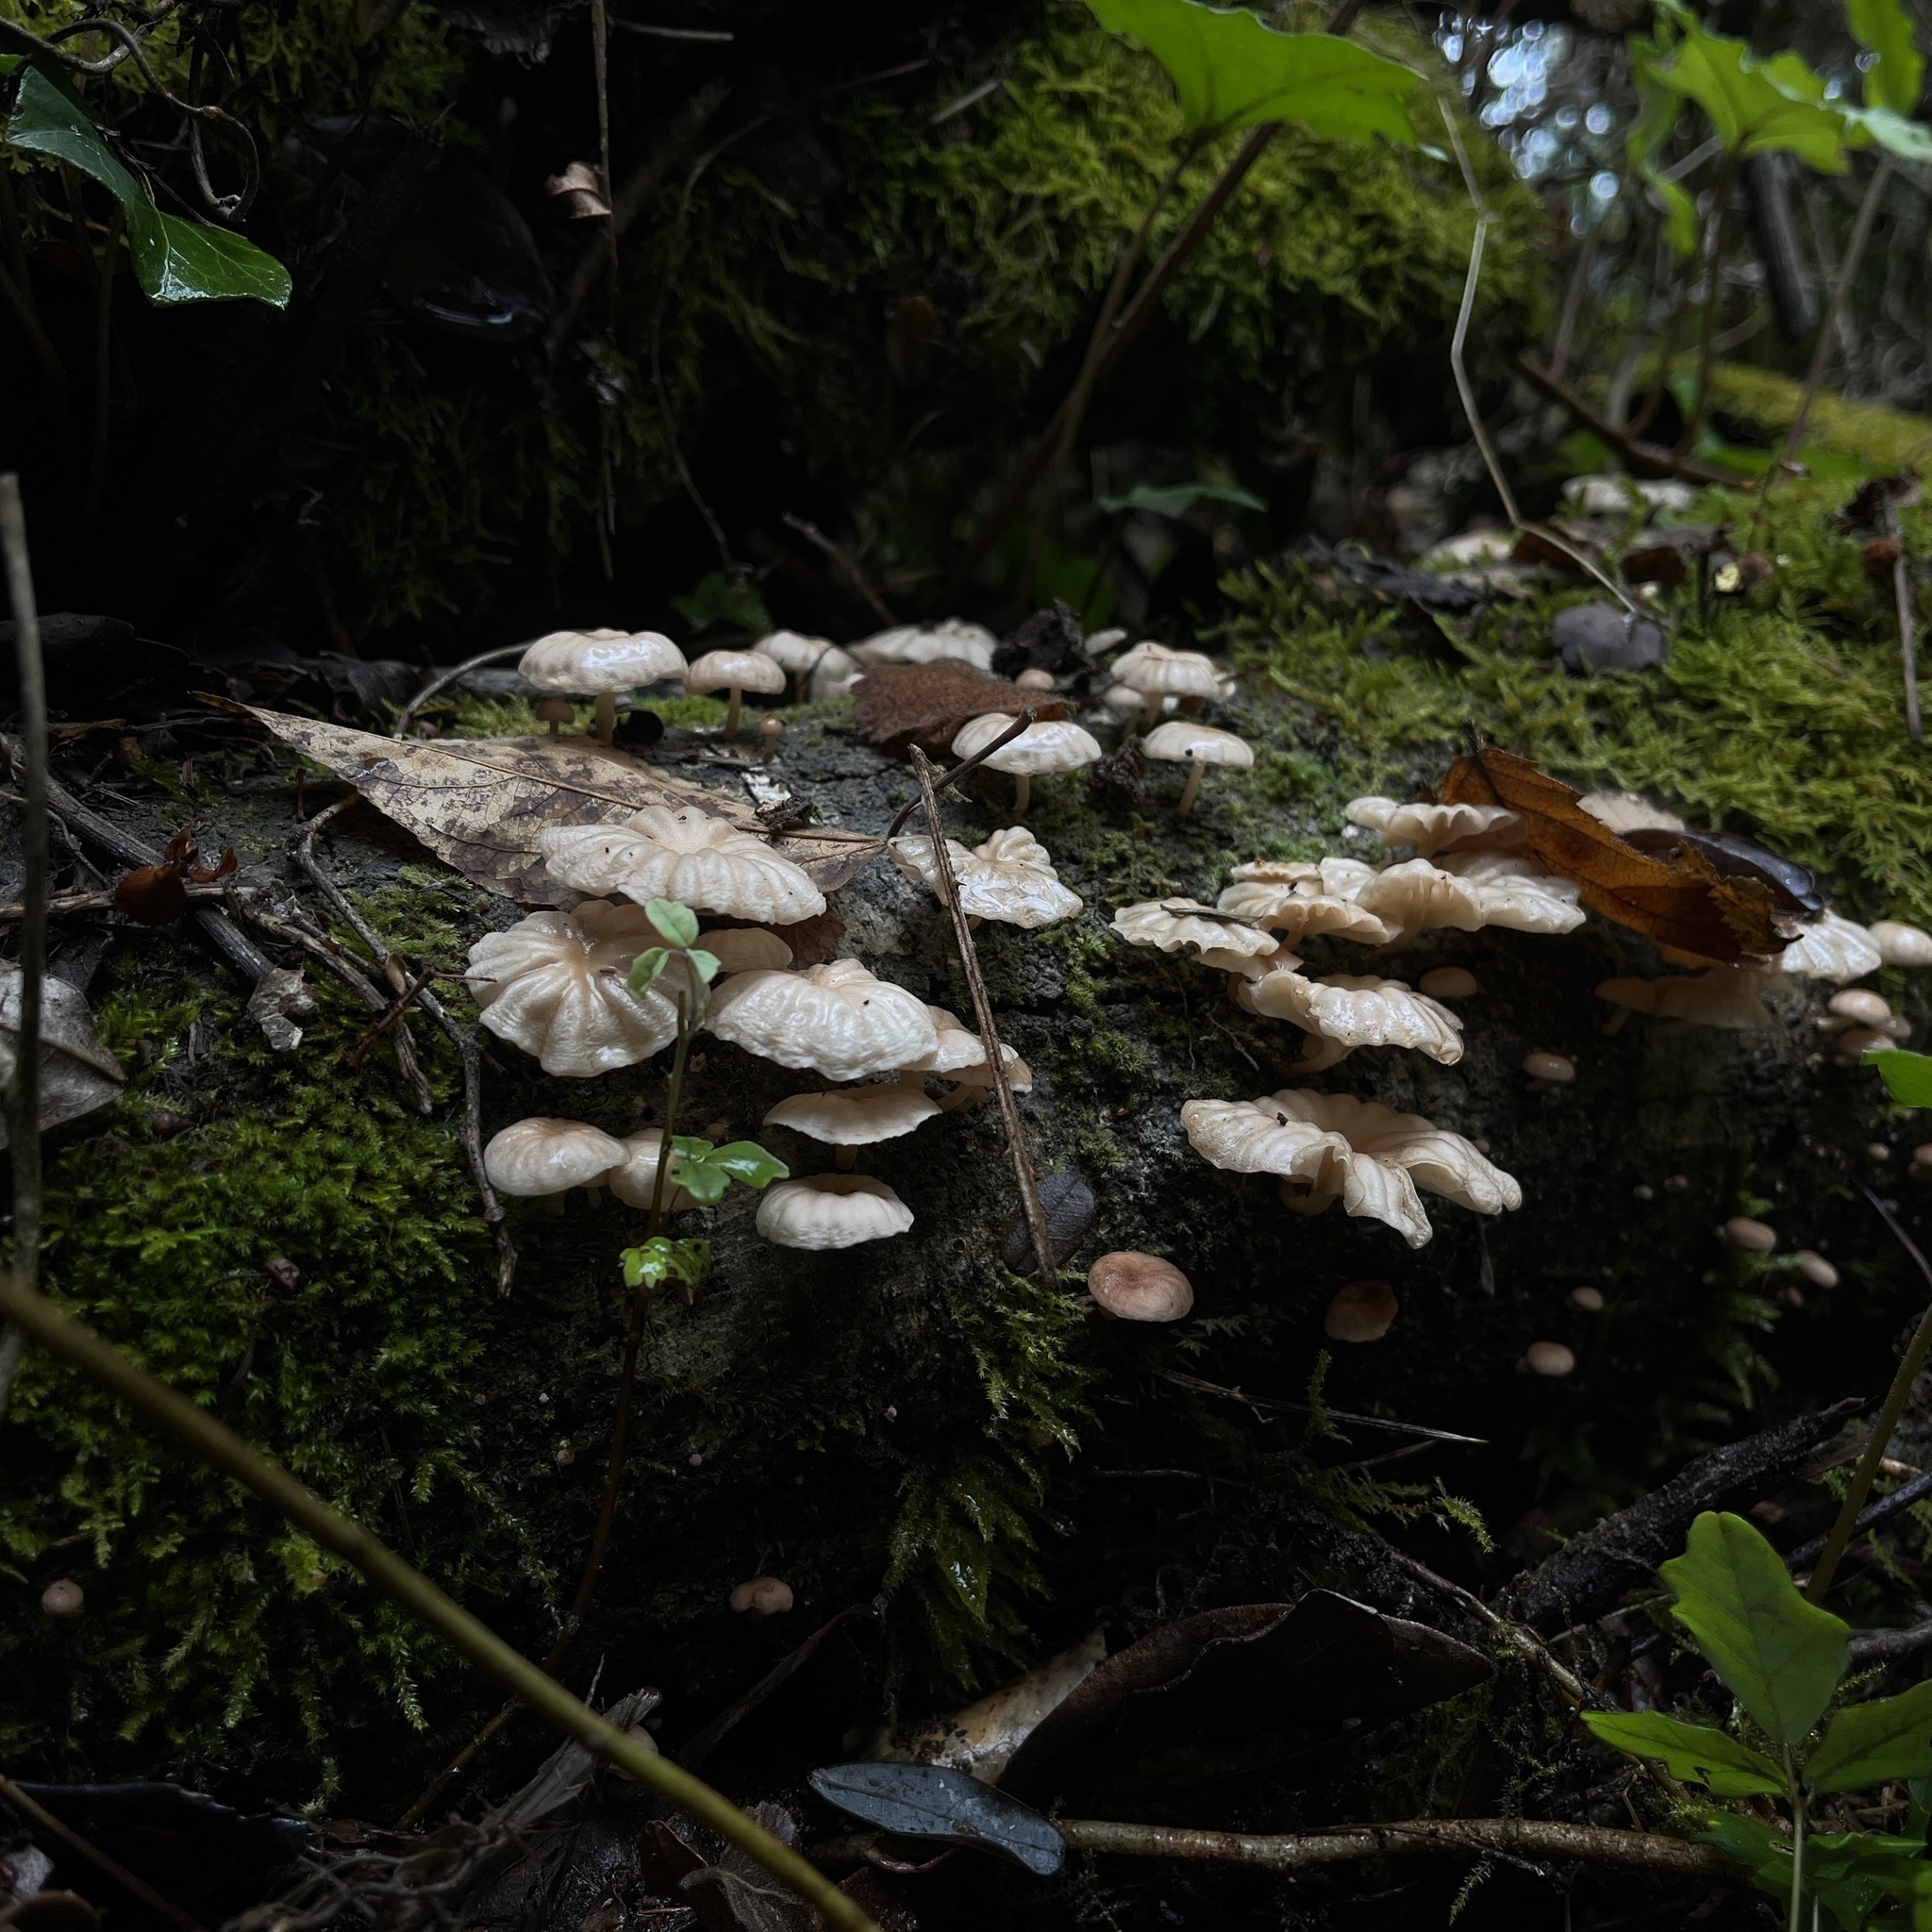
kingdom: Fungi
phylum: Basidiomycota
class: Agaricomycetes
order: Agaricales
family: Omphalotaceae
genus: Marasmiellus
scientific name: Marasmiellus alliiodorus
